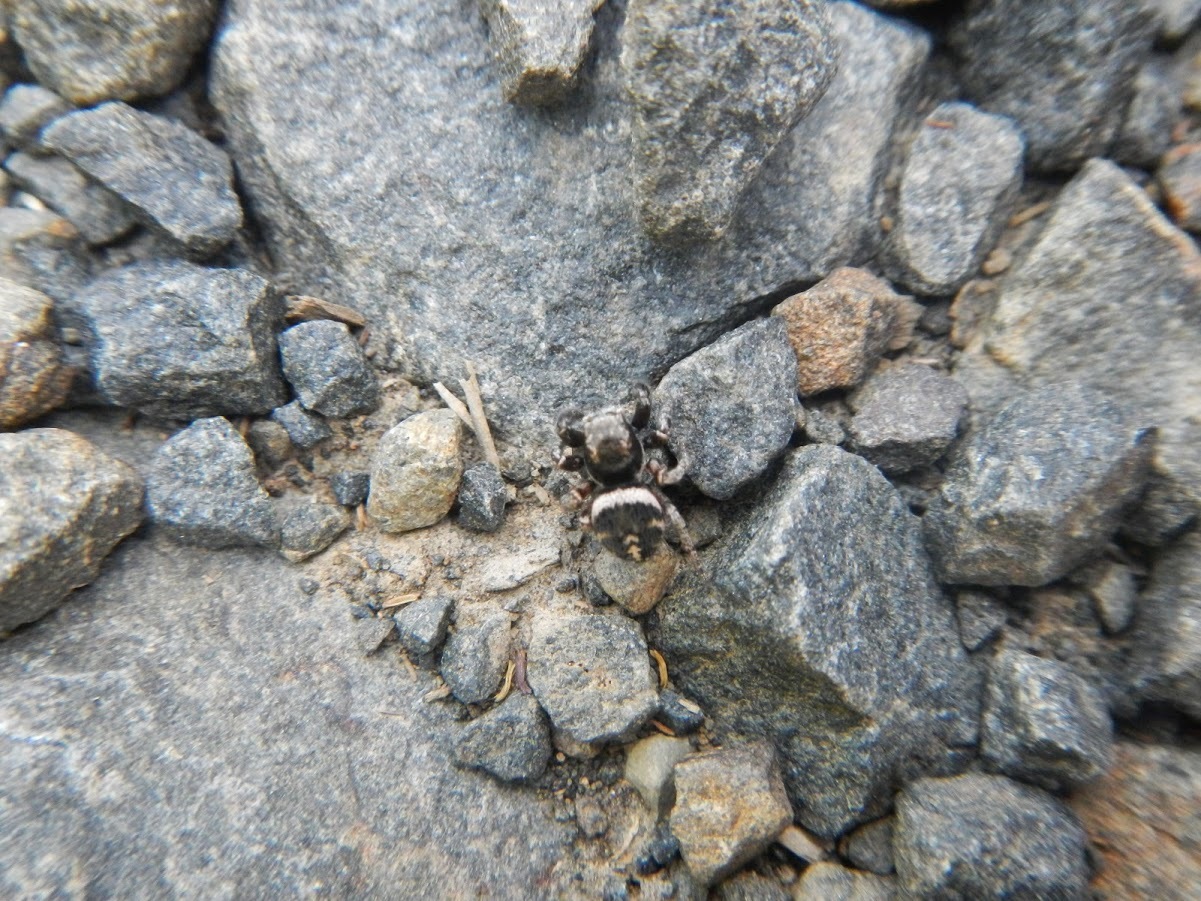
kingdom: Animalia
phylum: Arthropoda
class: Arachnida
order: Araneae
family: Salticidae
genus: Habronattus
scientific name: Habronattus oregonensis
